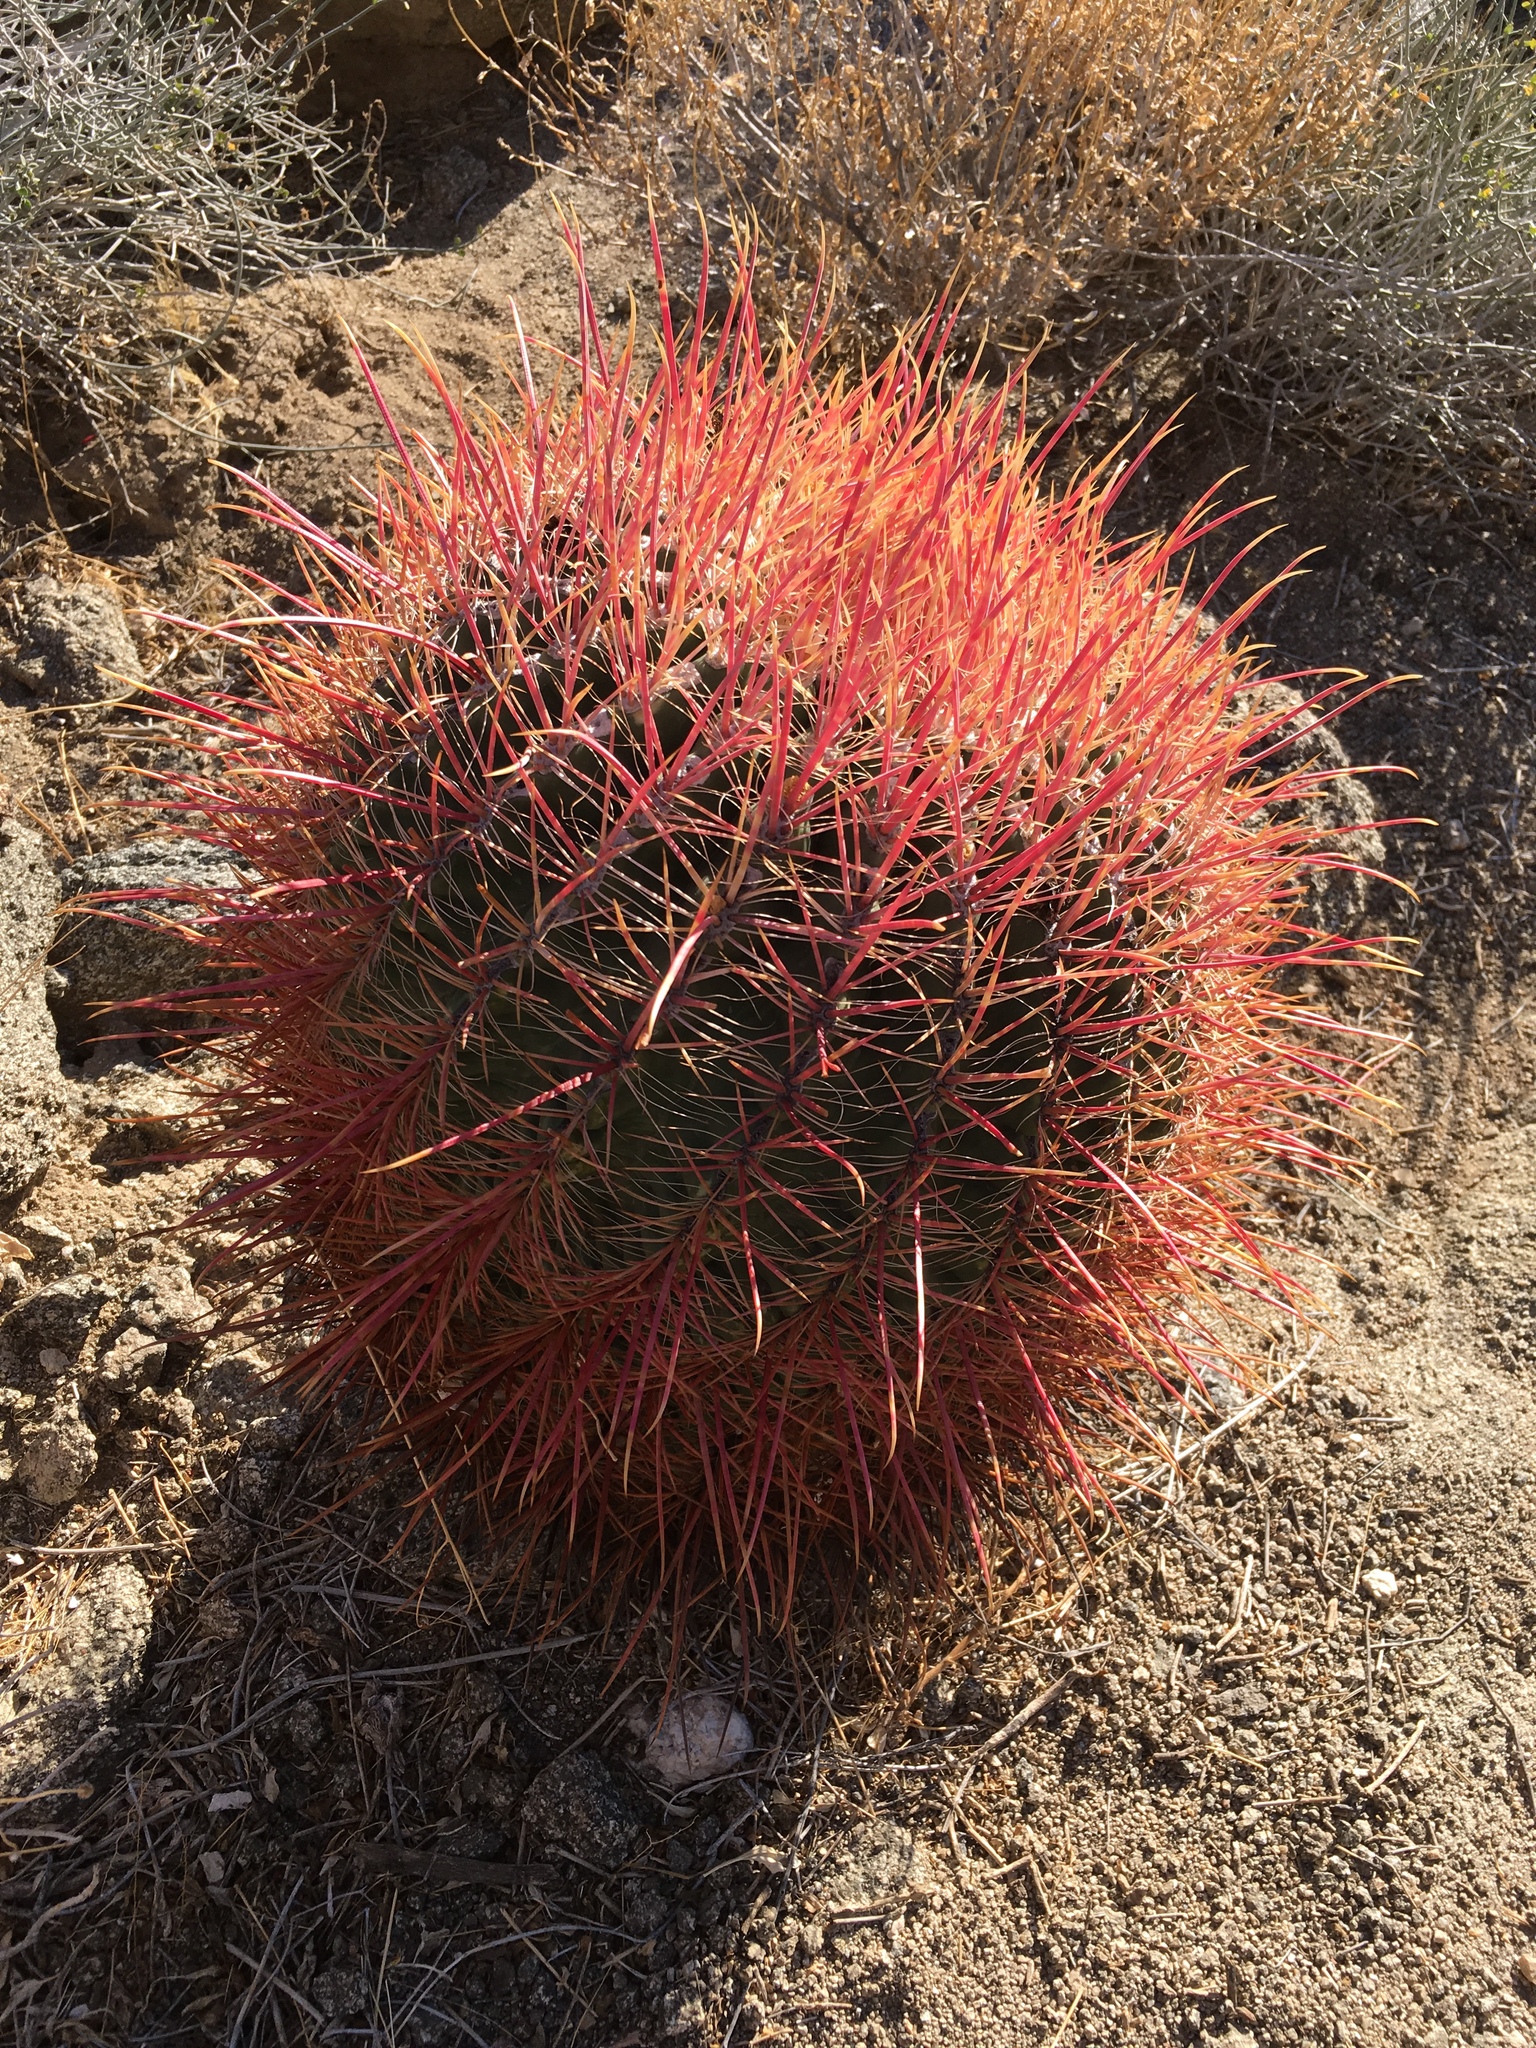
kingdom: Plantae
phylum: Tracheophyta
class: Magnoliopsida
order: Caryophyllales
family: Cactaceae
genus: Ferocactus
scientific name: Ferocactus cylindraceus
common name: California barrel cactus
